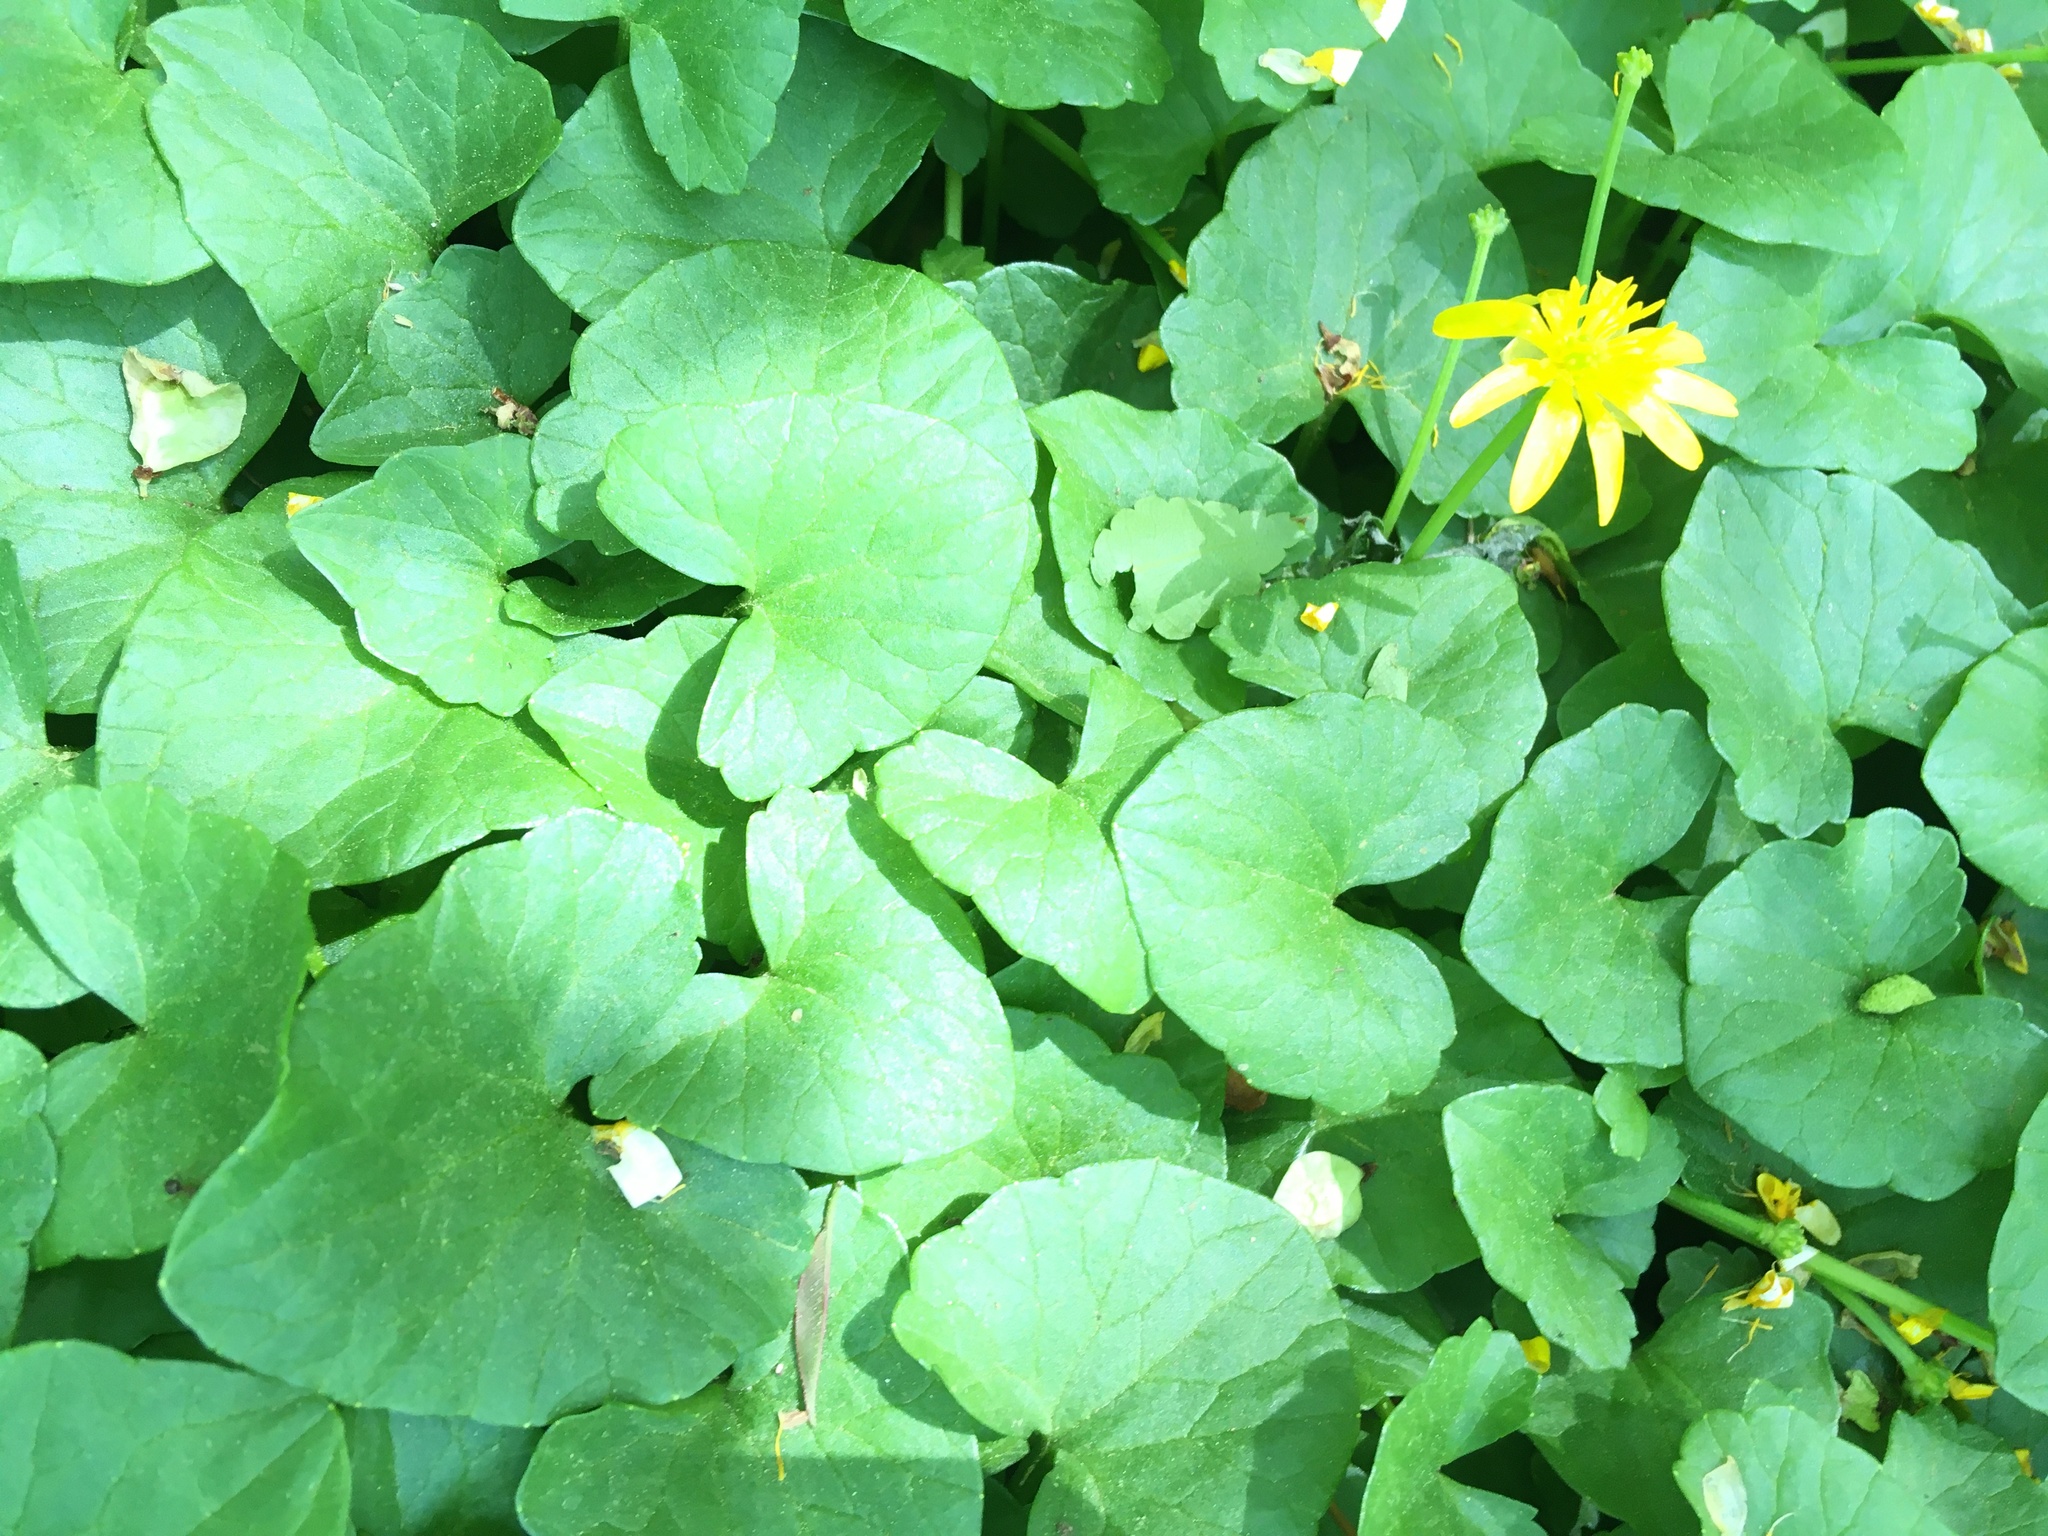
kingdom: Plantae
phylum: Tracheophyta
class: Magnoliopsida
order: Ranunculales
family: Ranunculaceae
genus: Ficaria
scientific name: Ficaria verna
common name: Lesser celandine
